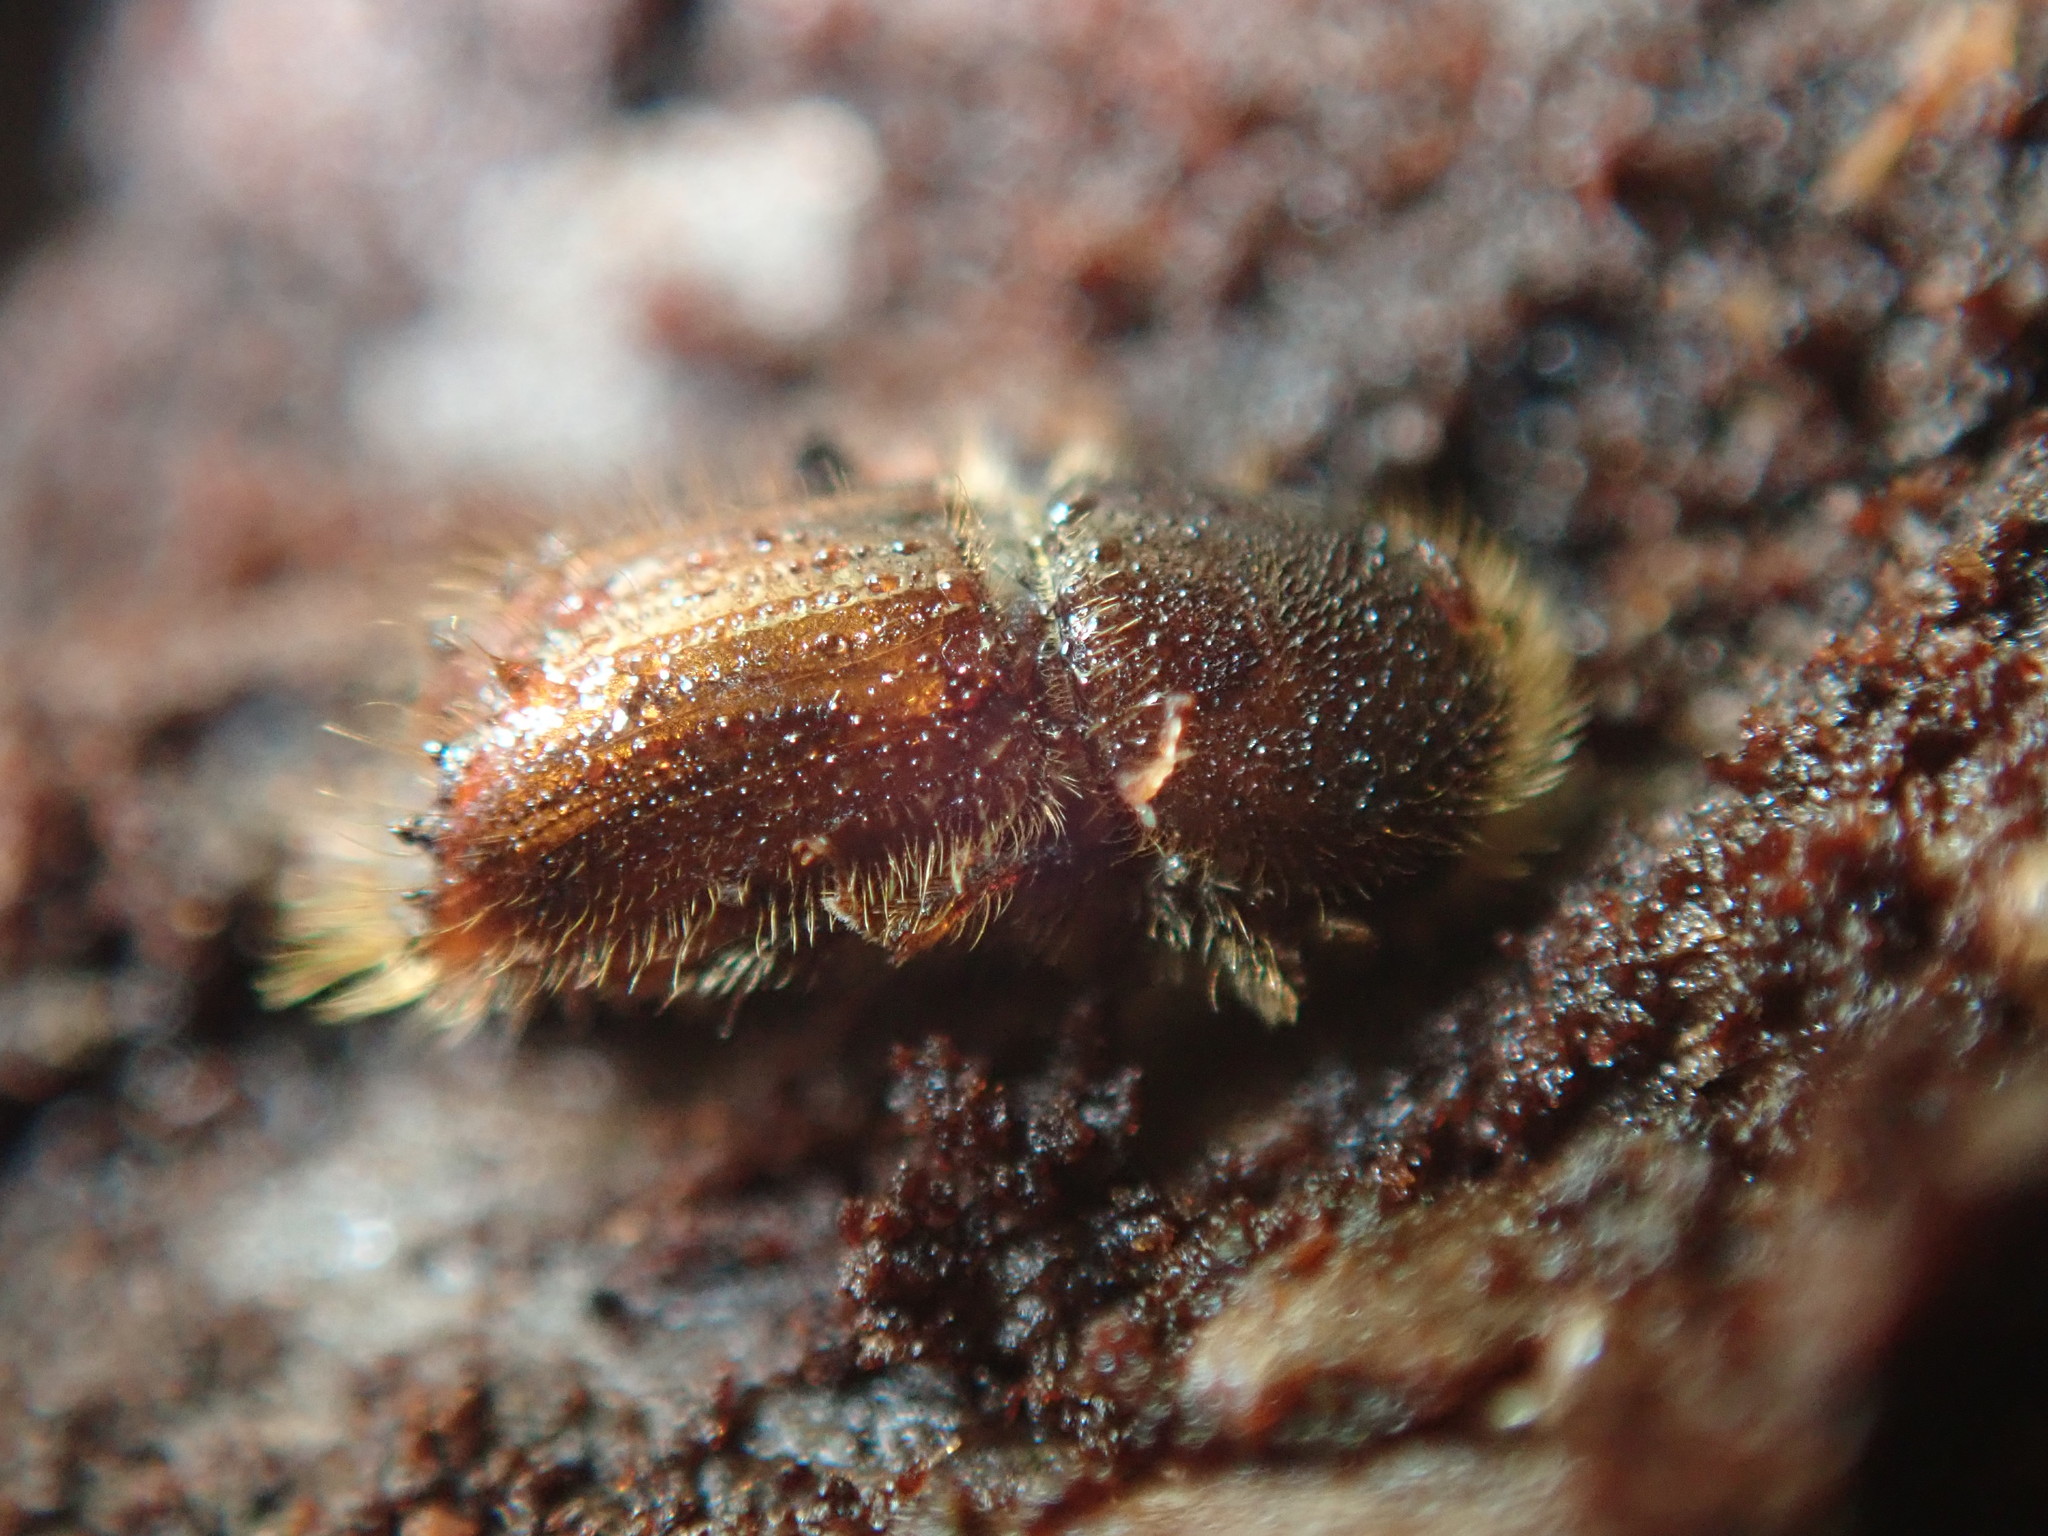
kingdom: Animalia
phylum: Arthropoda
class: Insecta
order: Coleoptera
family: Curculionidae
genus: Ips
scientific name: Ips typographus
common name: Eight-toothed spruce bark beetle
